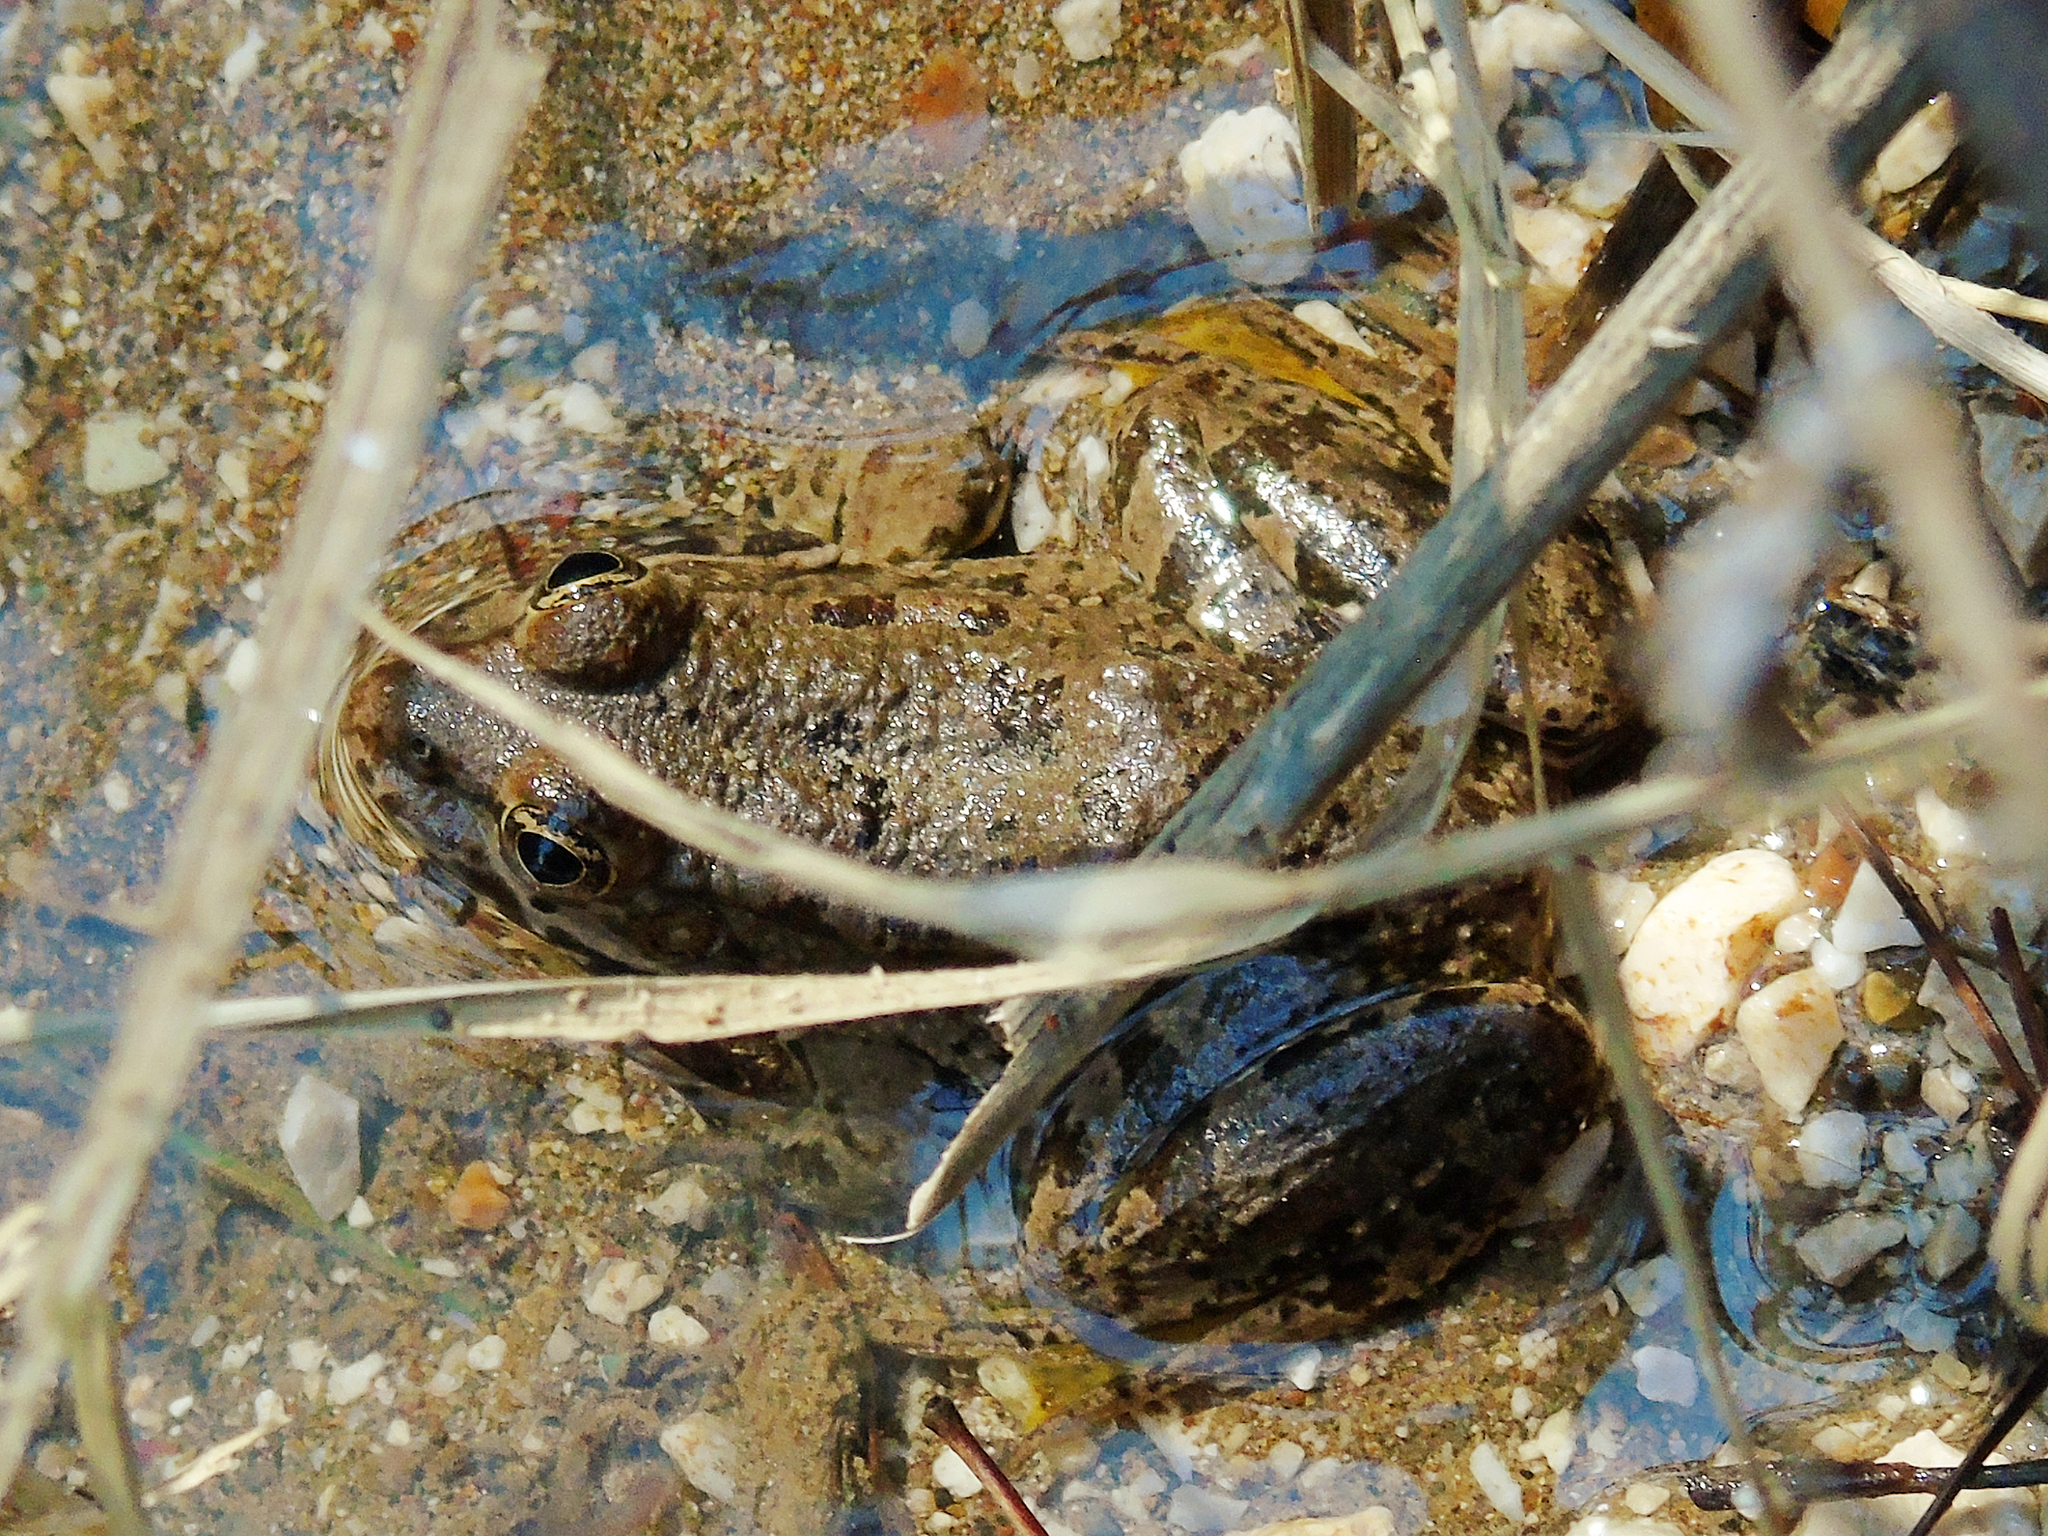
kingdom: Animalia
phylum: Chordata
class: Amphibia
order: Anura
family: Ranidae
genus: Pelophylax
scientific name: Pelophylax ridibundus
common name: Marsh frog
